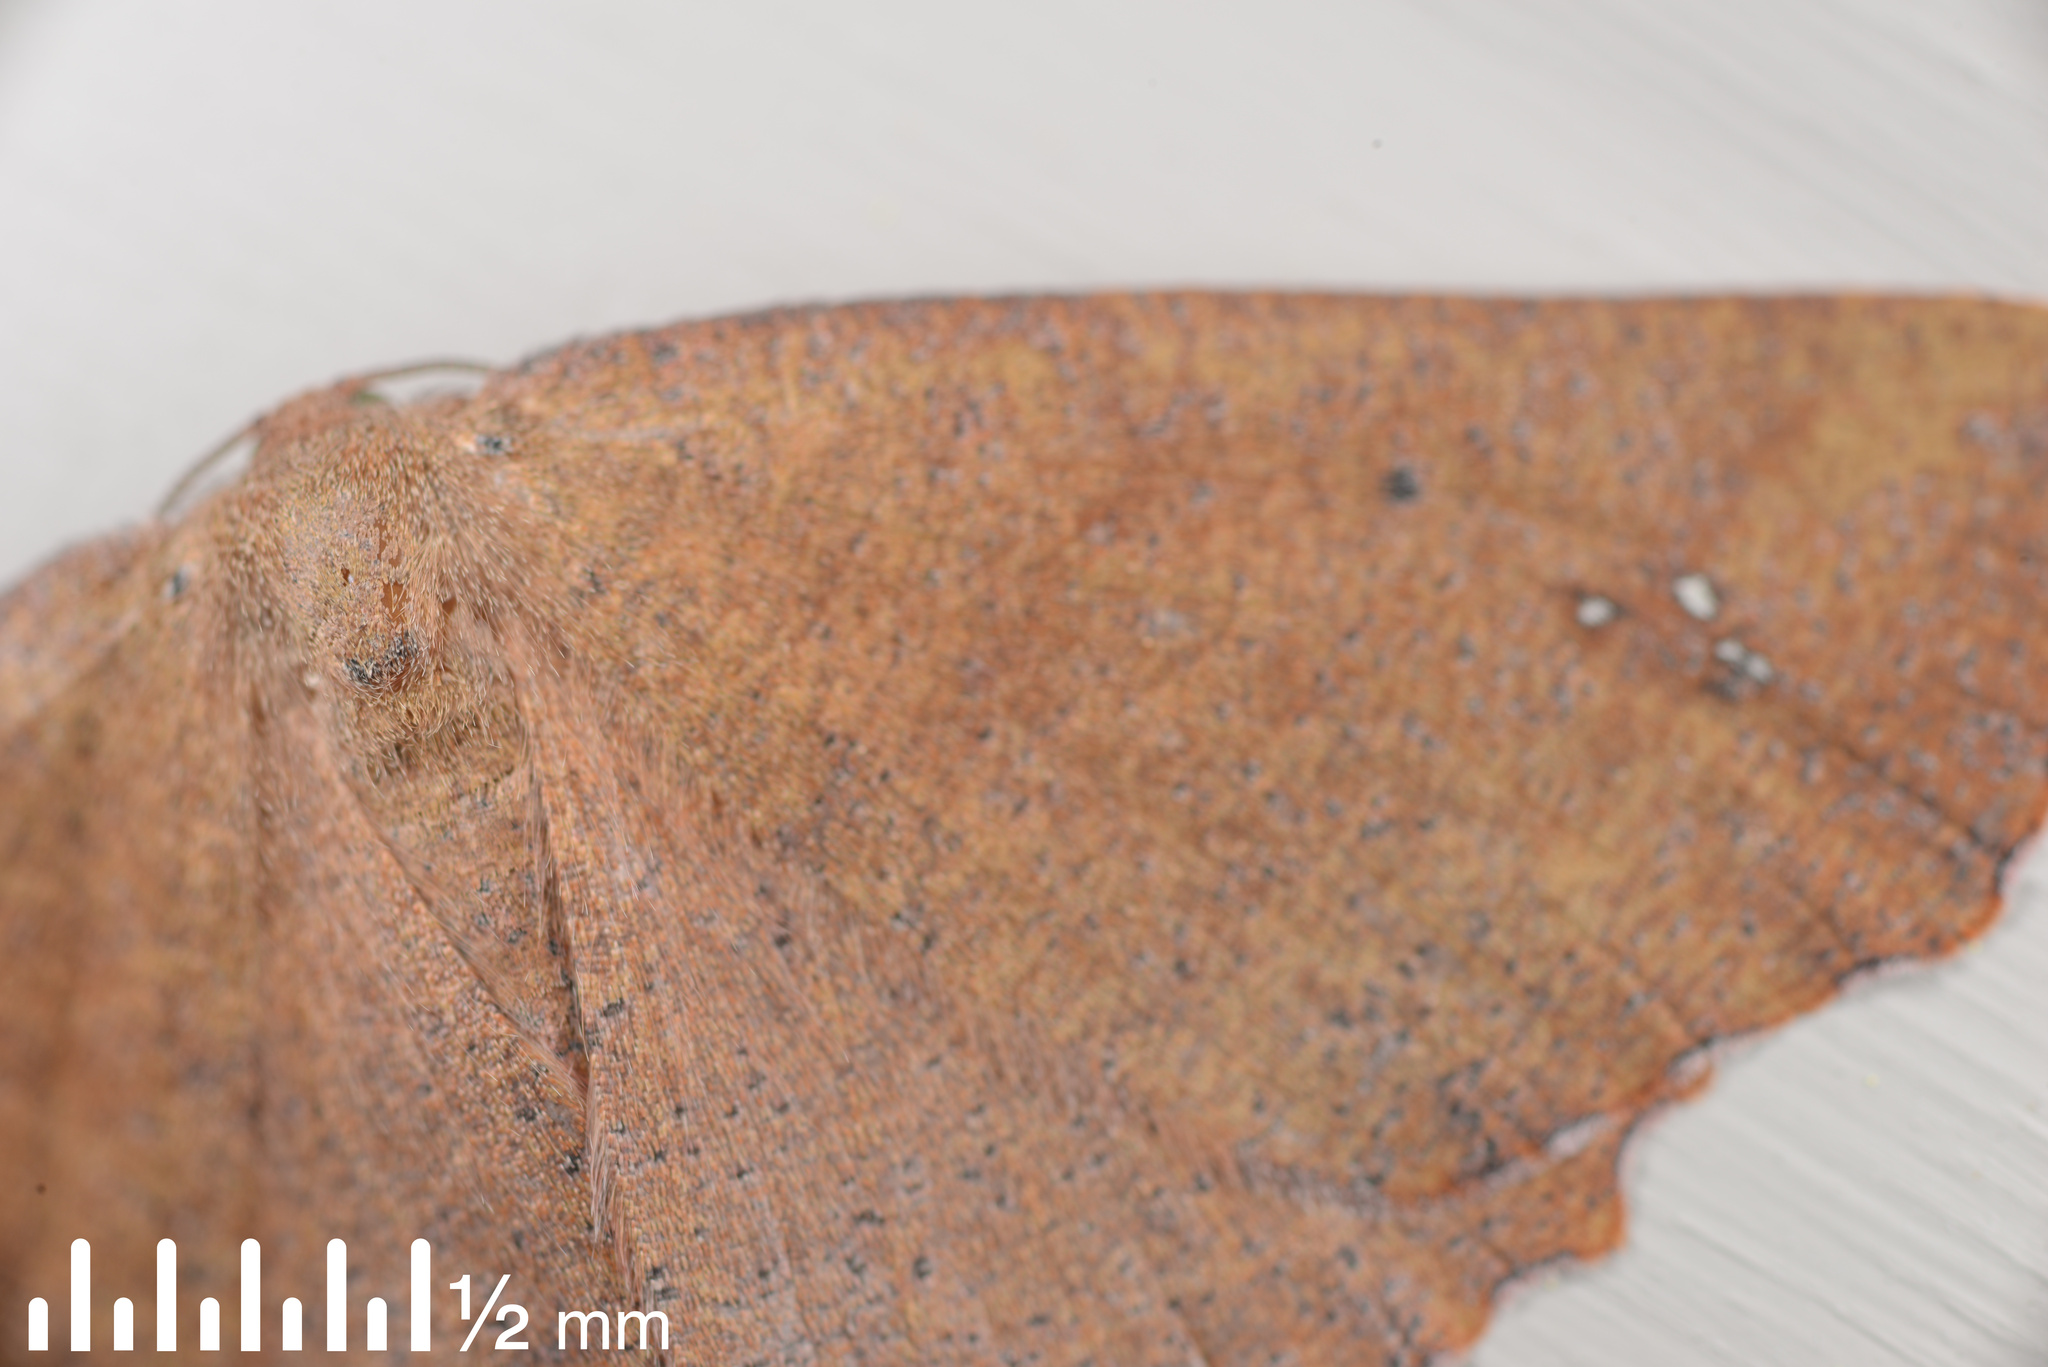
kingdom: Animalia
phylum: Arthropoda
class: Insecta
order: Lepidoptera
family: Geometridae
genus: Xyridacma
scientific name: Xyridacma ustaria
